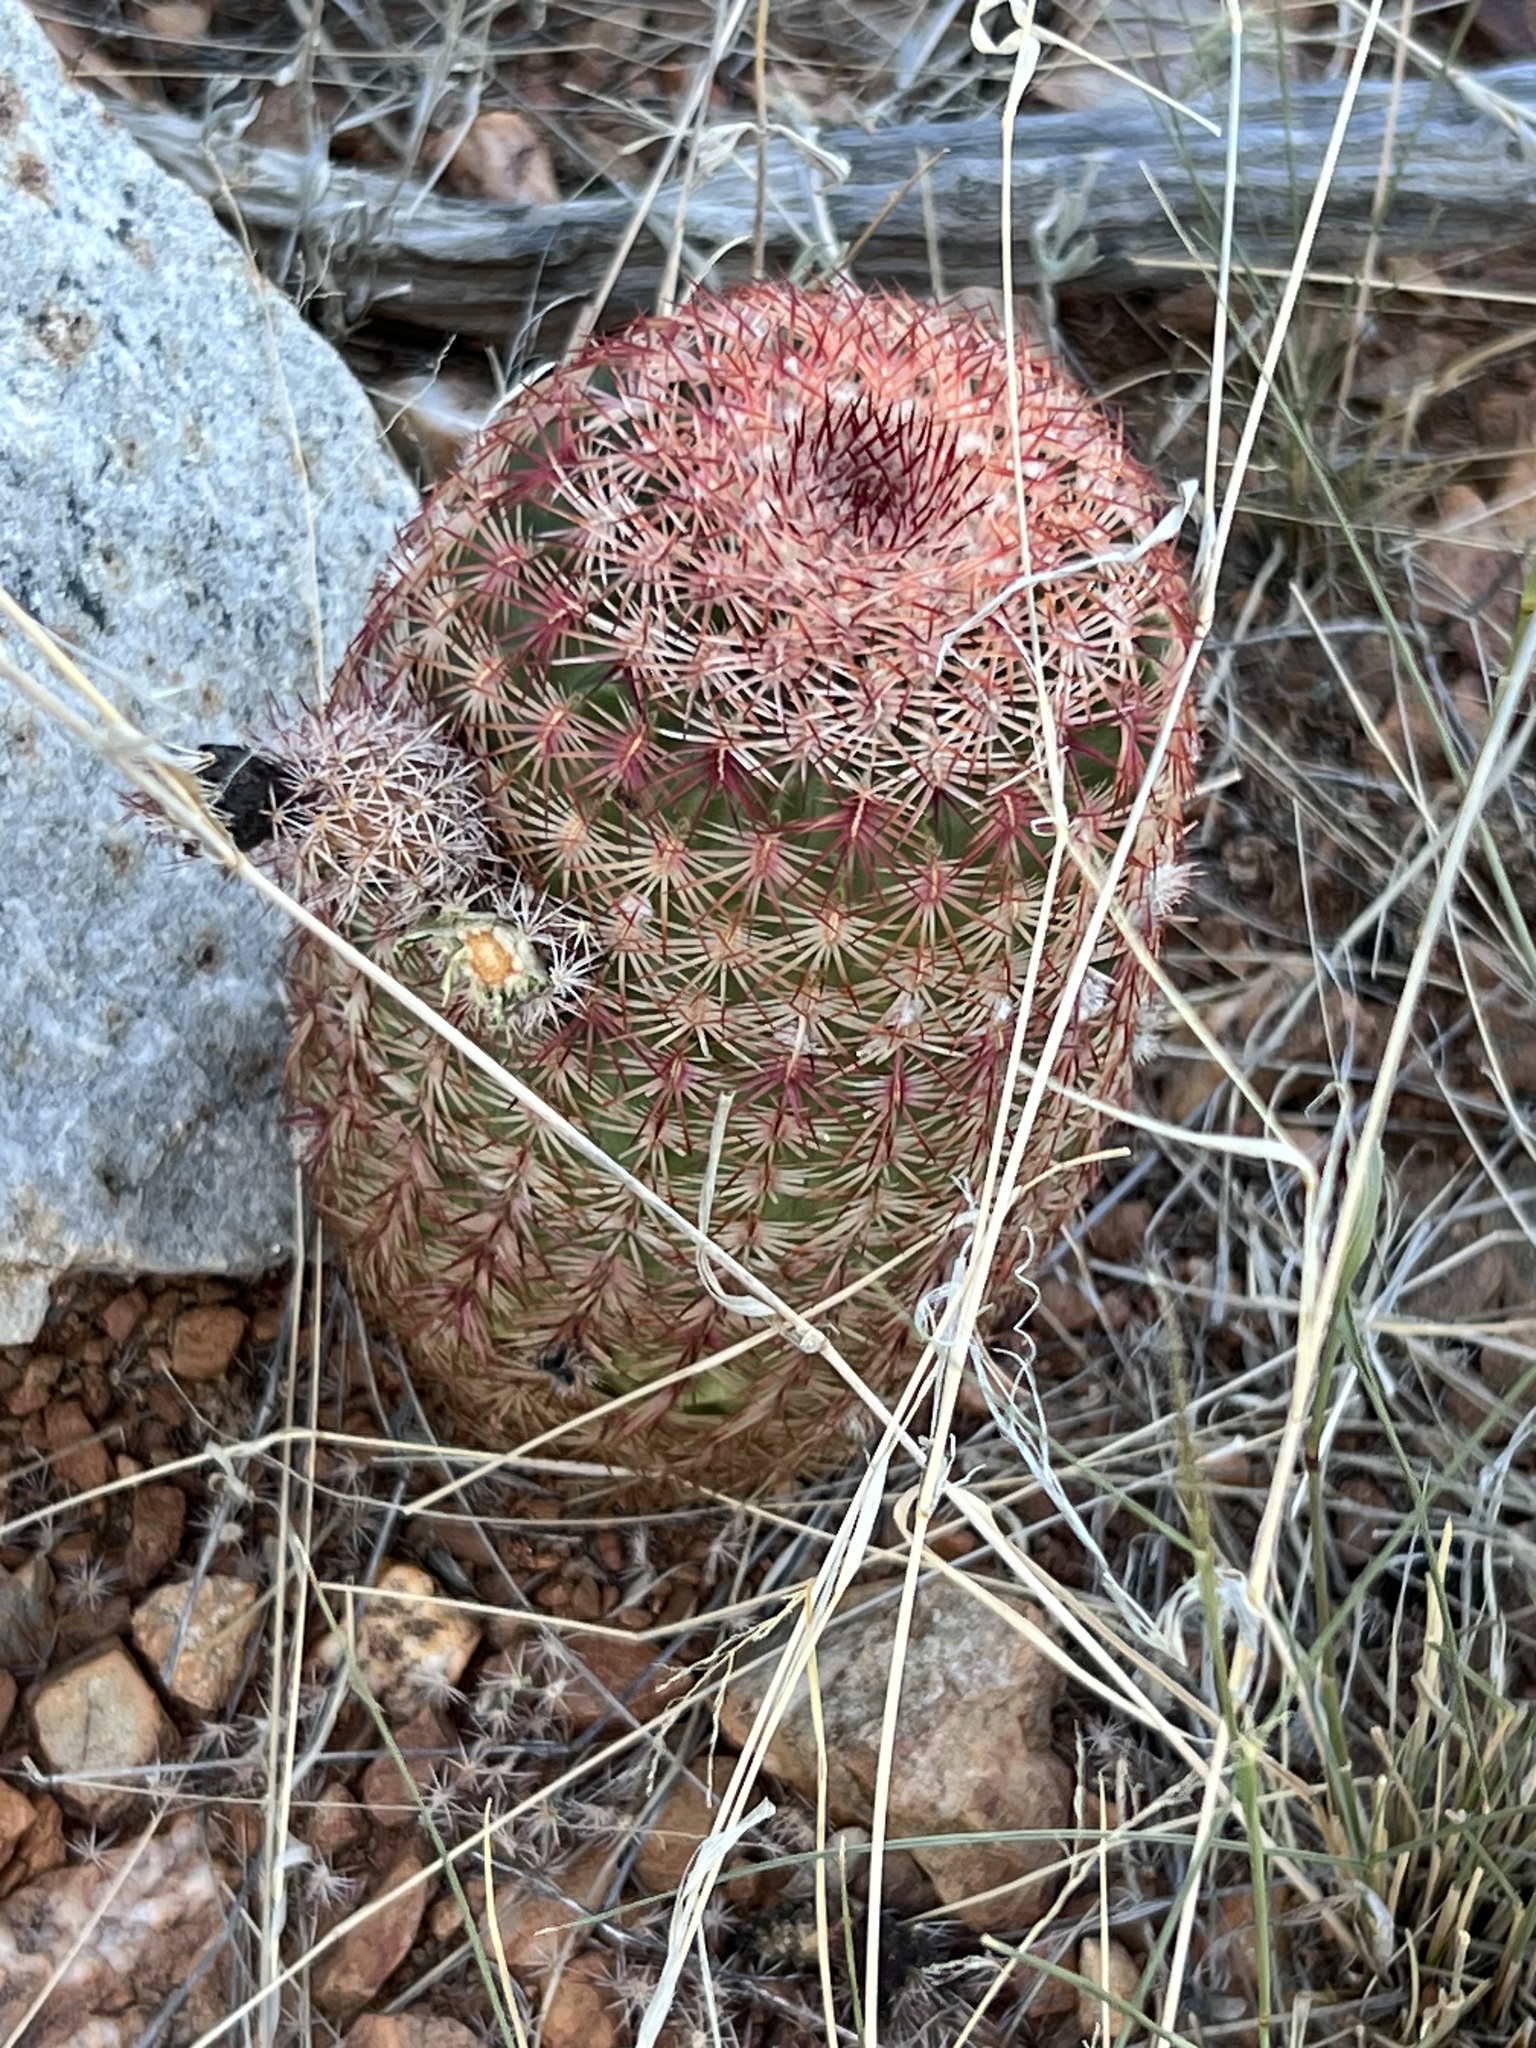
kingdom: Plantae
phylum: Tracheophyta
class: Magnoliopsida
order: Caryophyllales
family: Cactaceae
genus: Echinocereus
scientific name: Echinocereus rigidissimus
